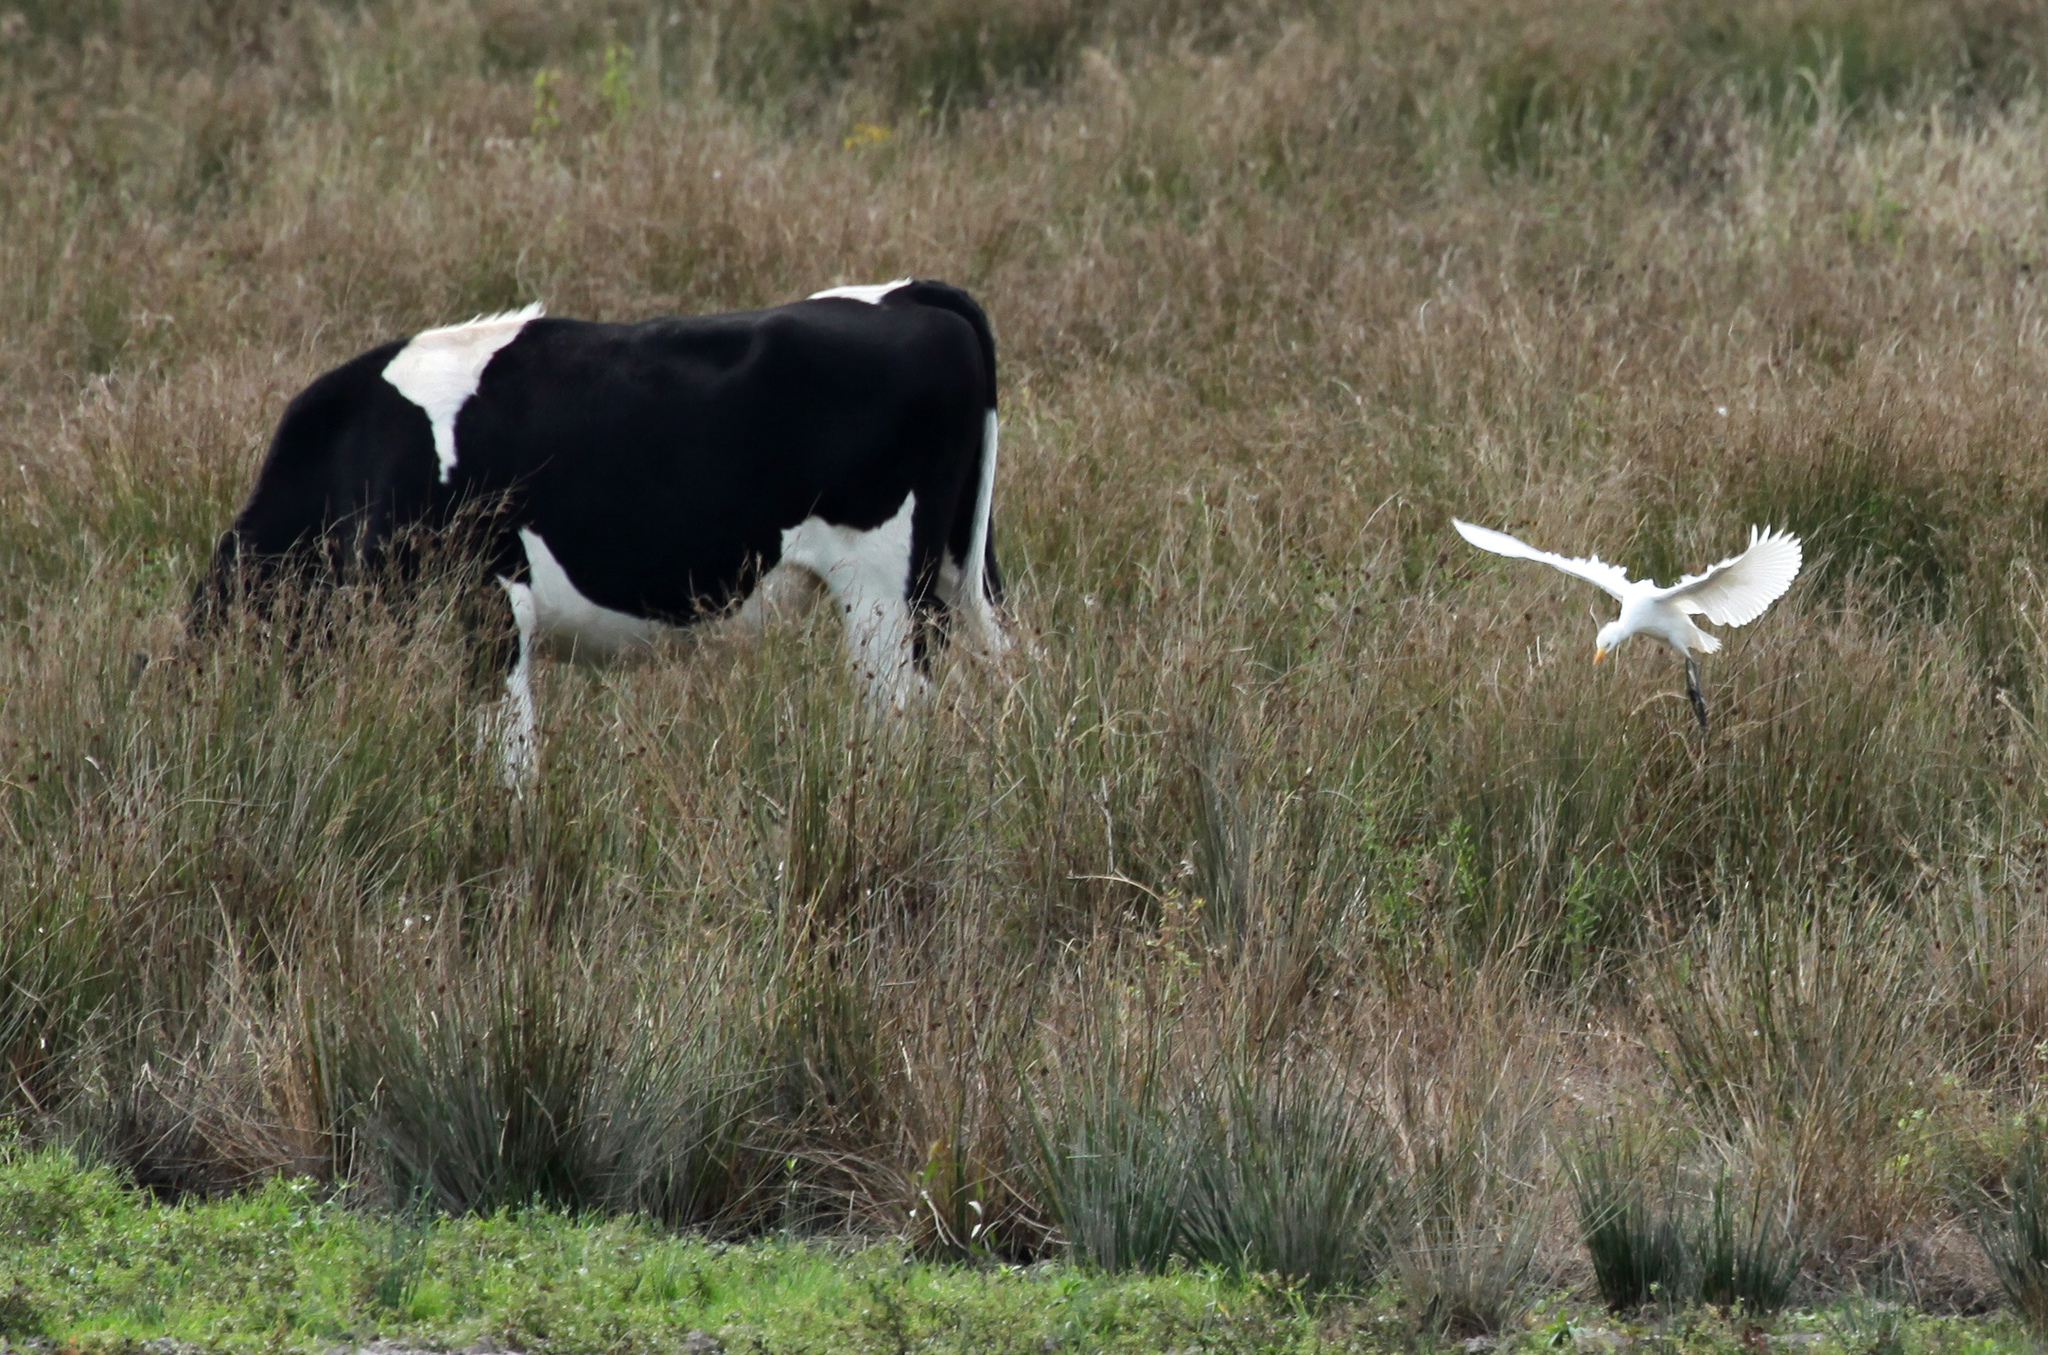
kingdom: Animalia
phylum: Chordata
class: Aves
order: Pelecaniformes
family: Ardeidae
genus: Bubulcus
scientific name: Bubulcus ibis
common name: Cattle egret
